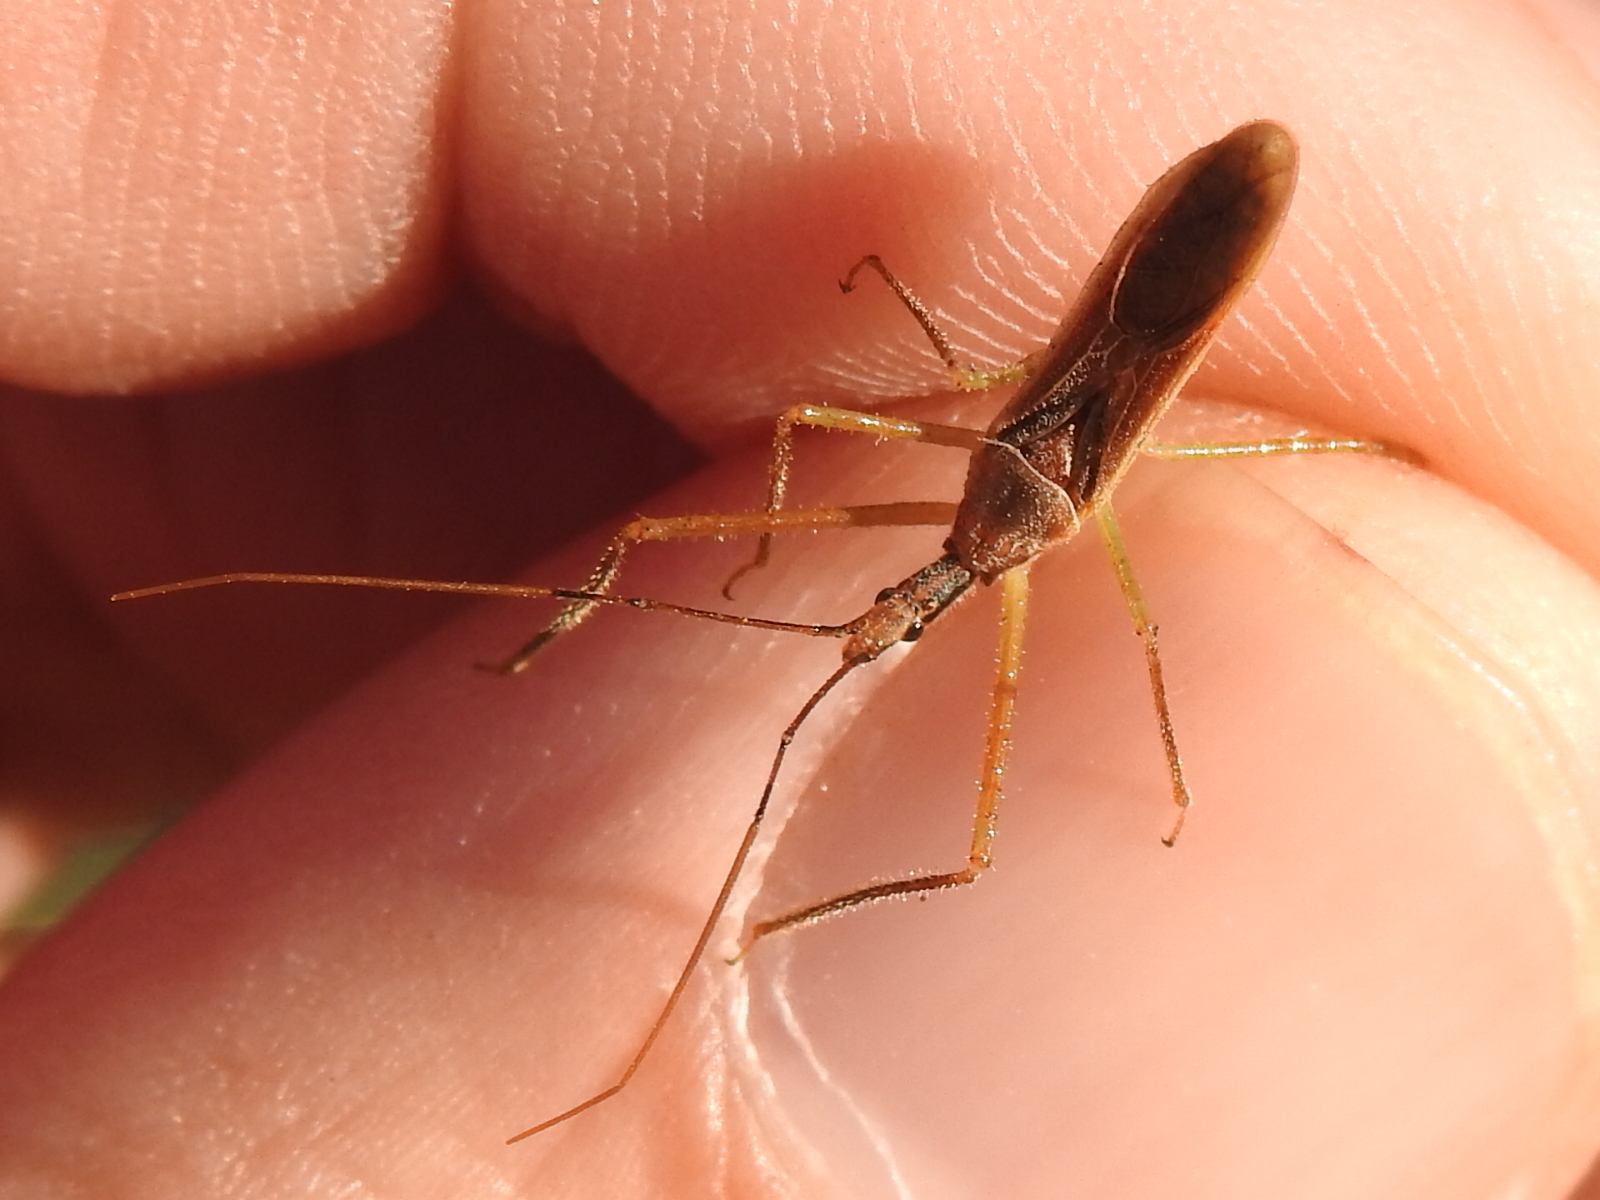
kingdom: Animalia
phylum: Arthropoda
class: Insecta
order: Hemiptera
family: Reduviidae
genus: Zelus
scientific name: Zelus cervicalis
